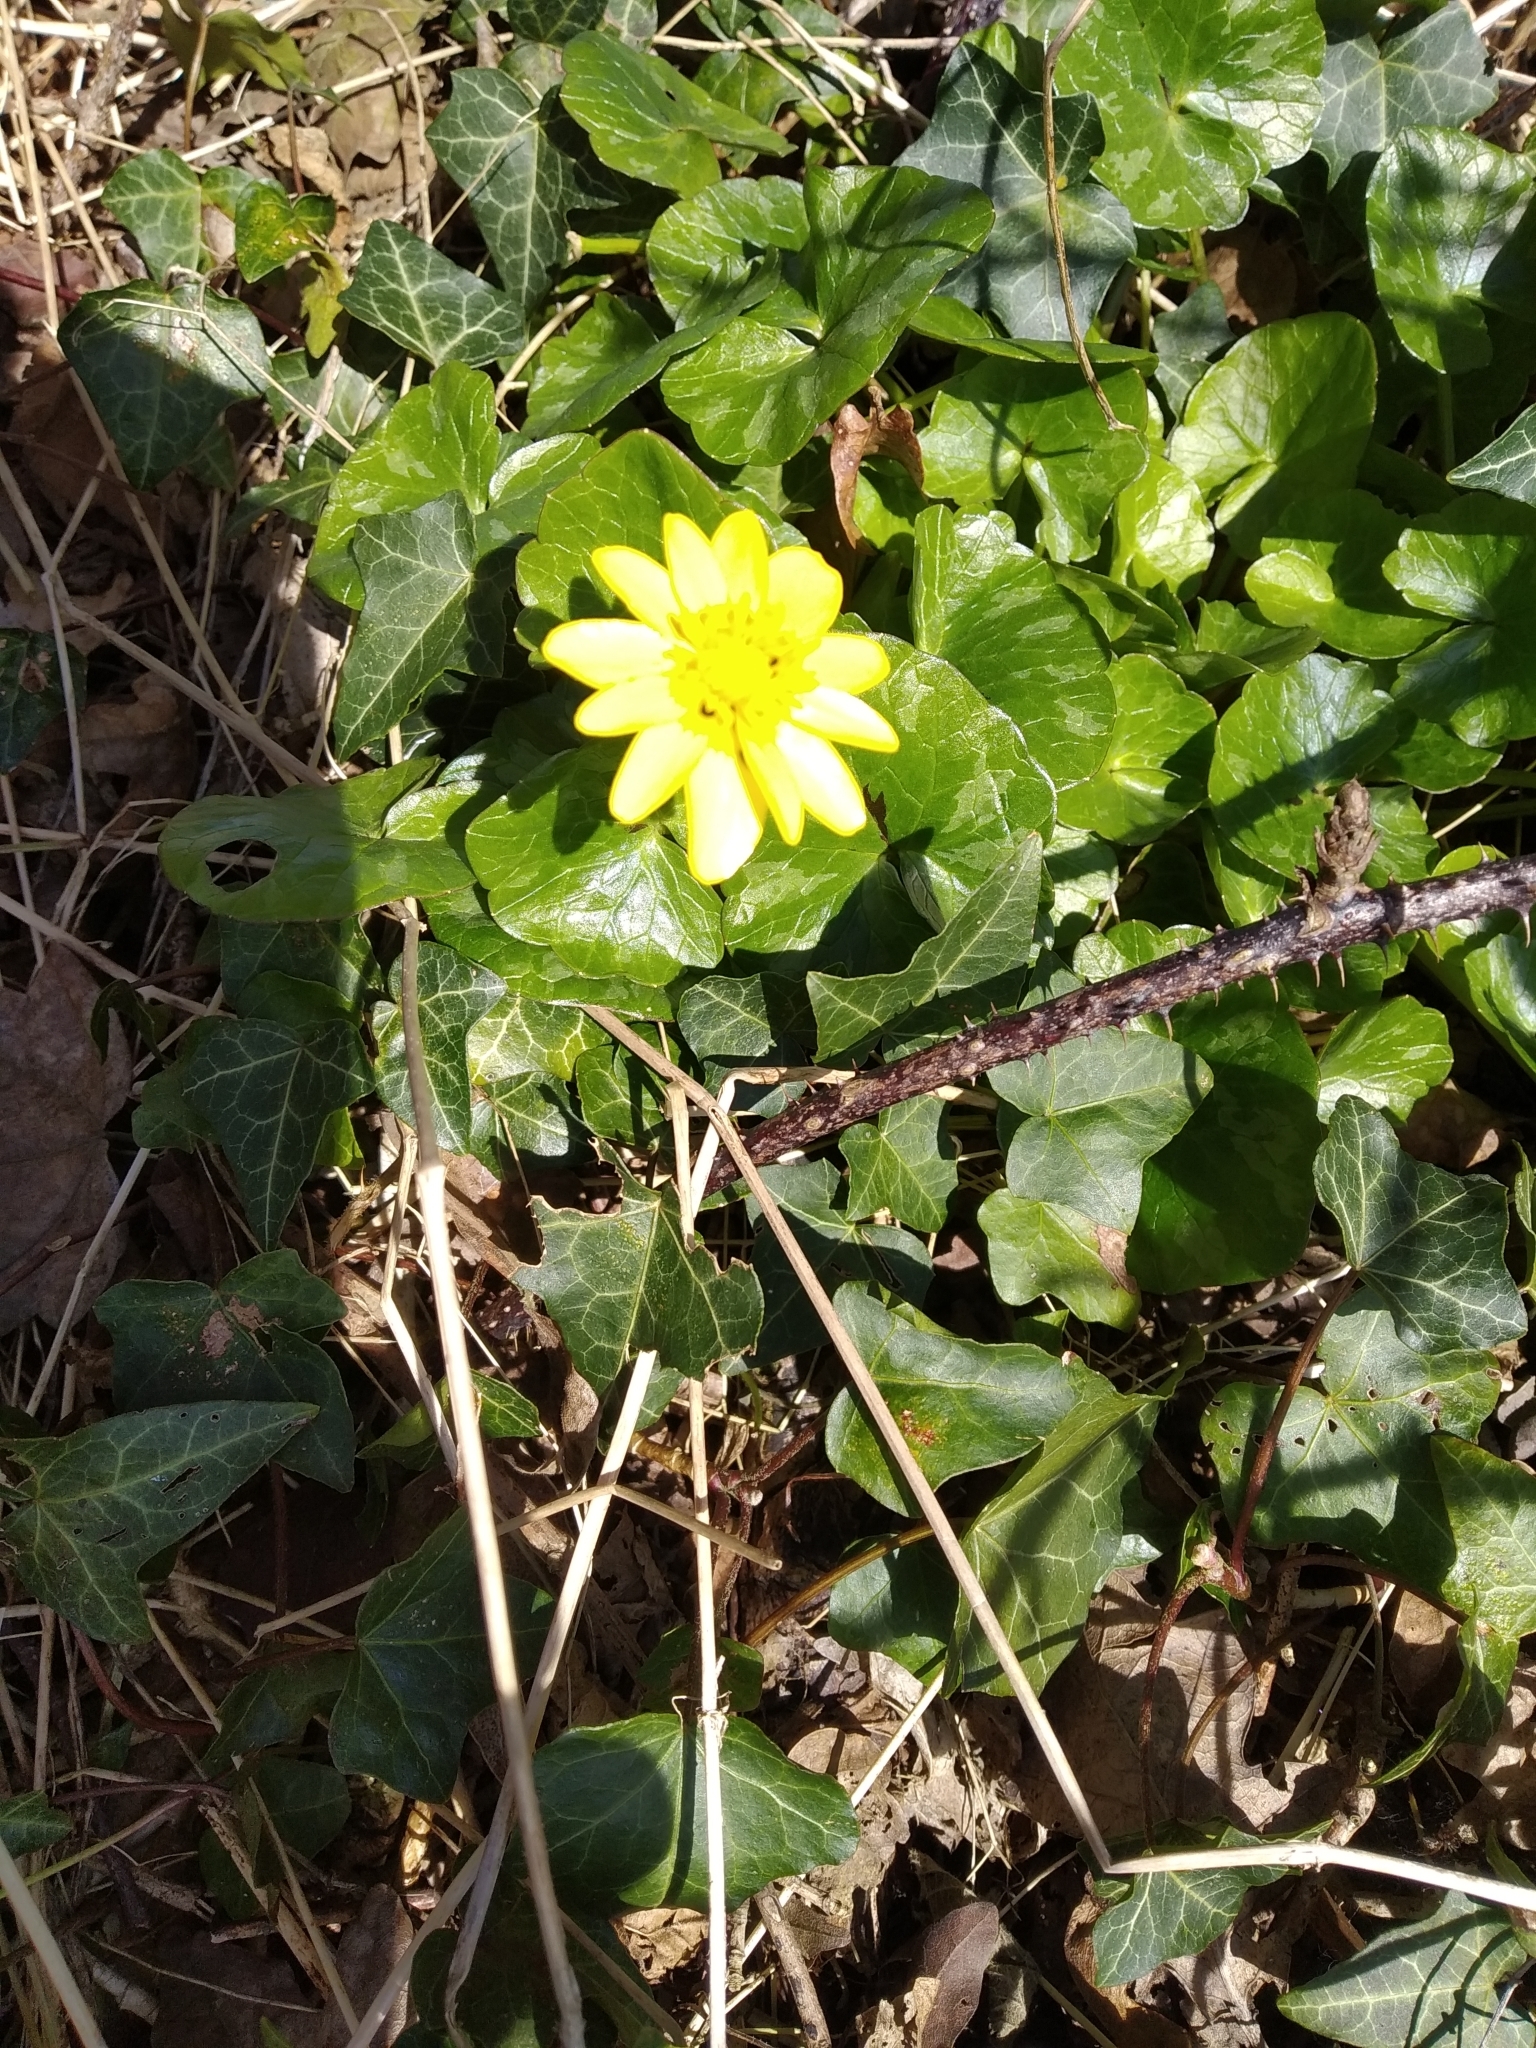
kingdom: Plantae
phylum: Tracheophyta
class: Magnoliopsida
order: Ranunculales
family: Ranunculaceae
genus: Ficaria
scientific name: Ficaria verna
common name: Lesser celandine
